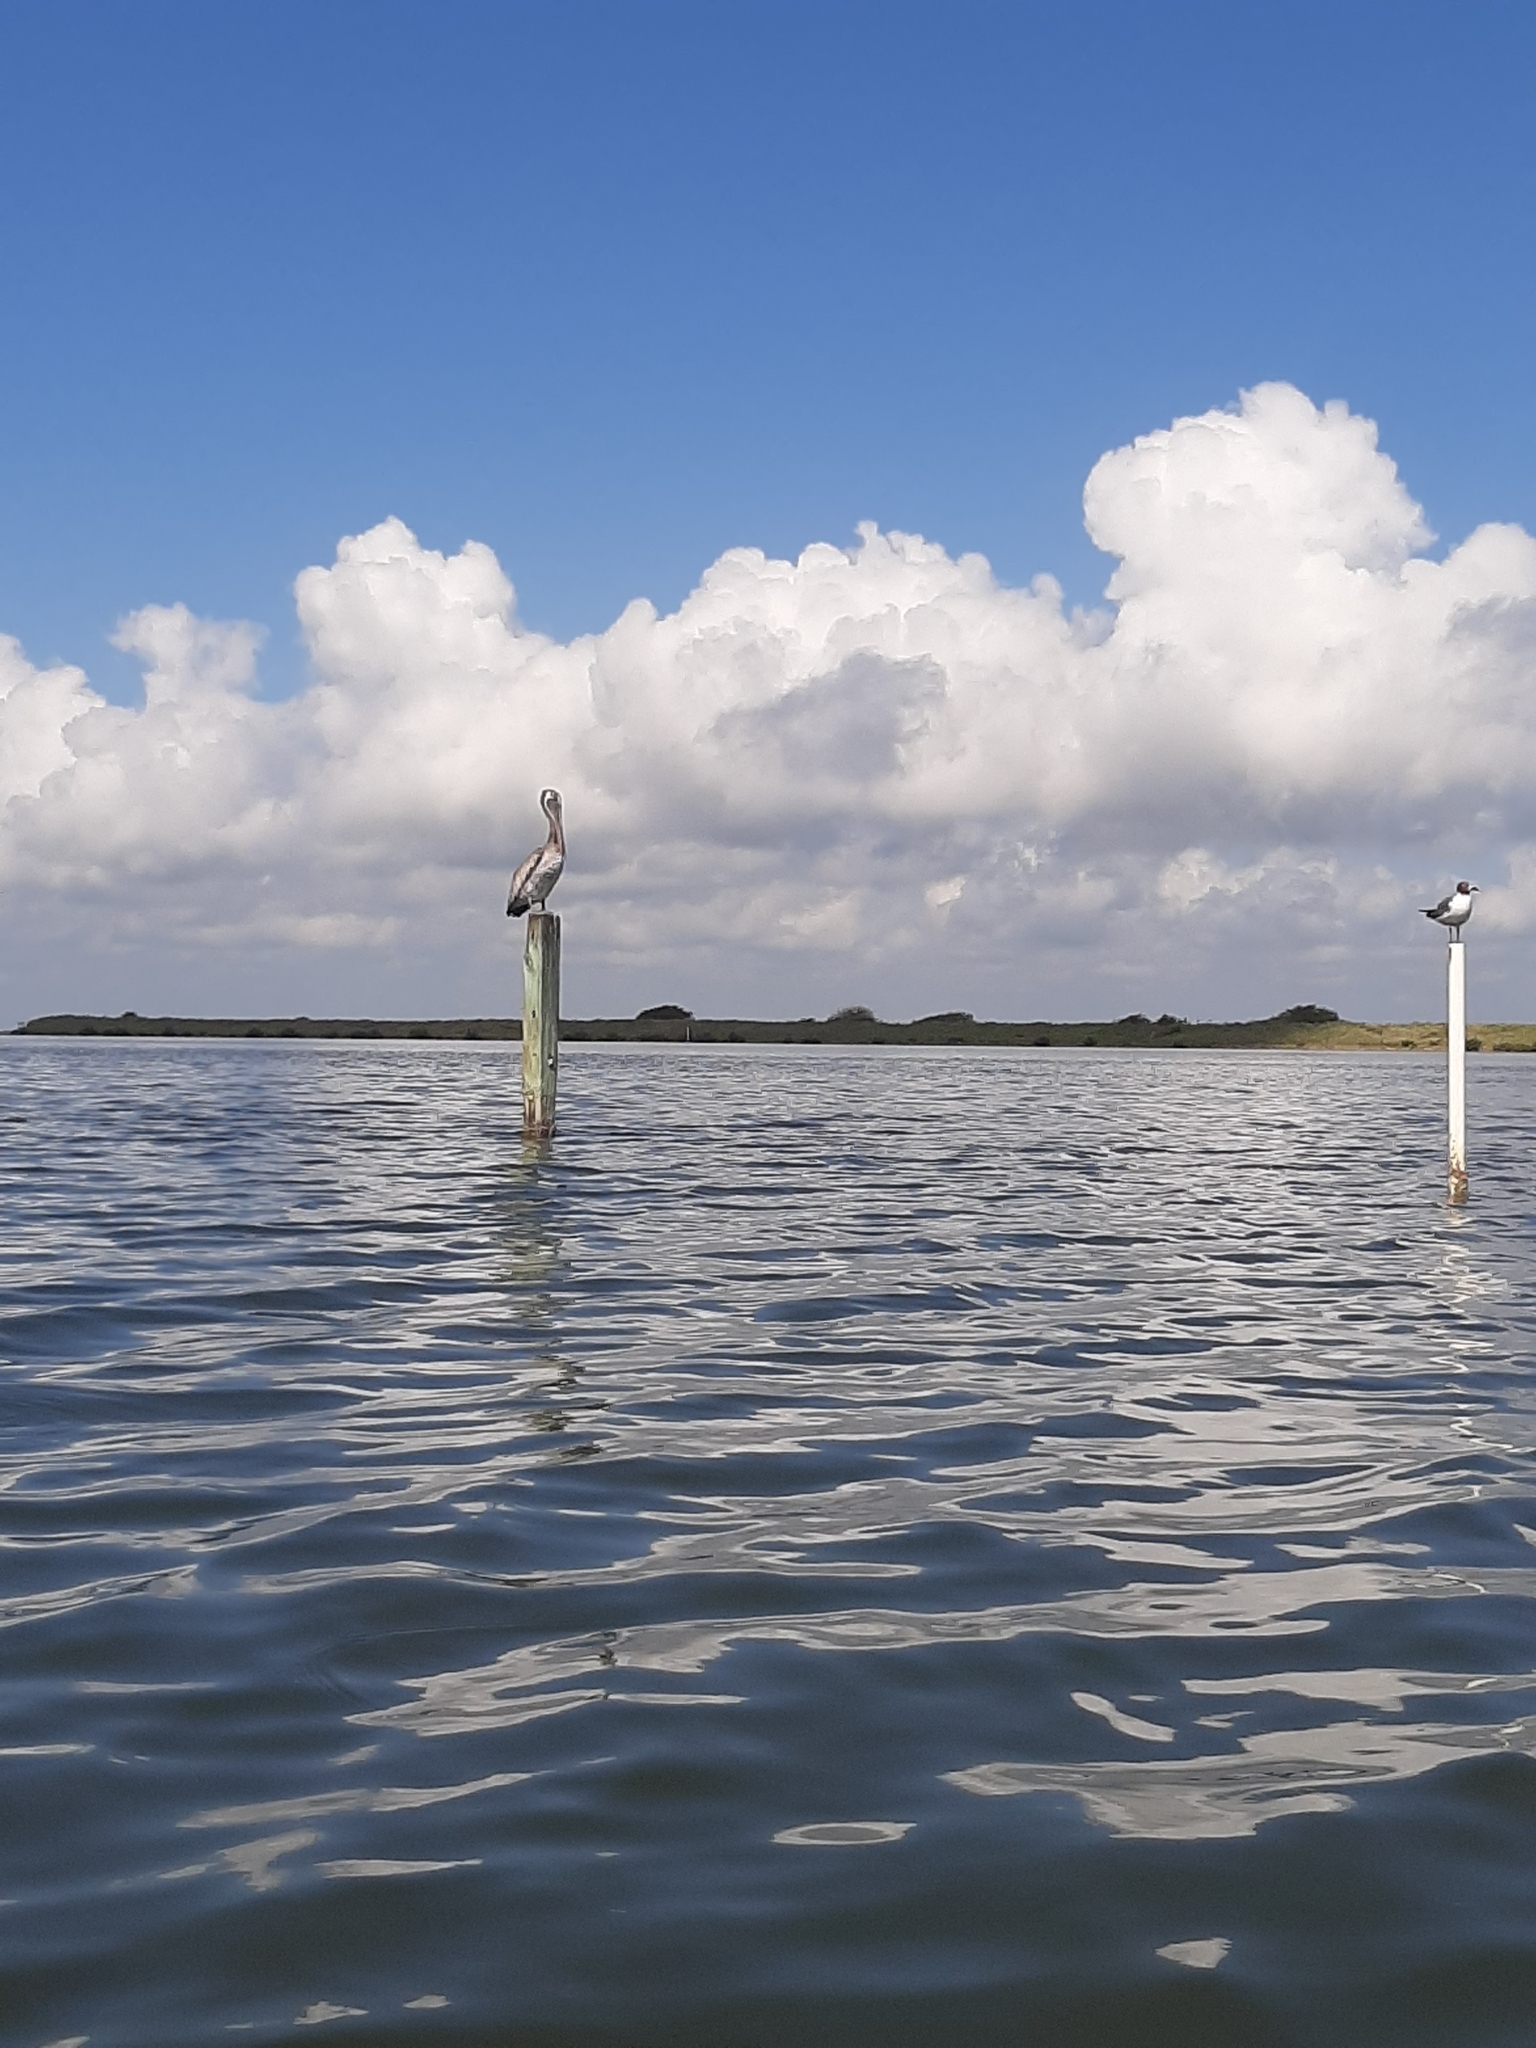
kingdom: Animalia
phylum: Chordata
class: Aves
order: Pelecaniformes
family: Pelecanidae
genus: Pelecanus
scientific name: Pelecanus occidentalis
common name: Brown pelican
